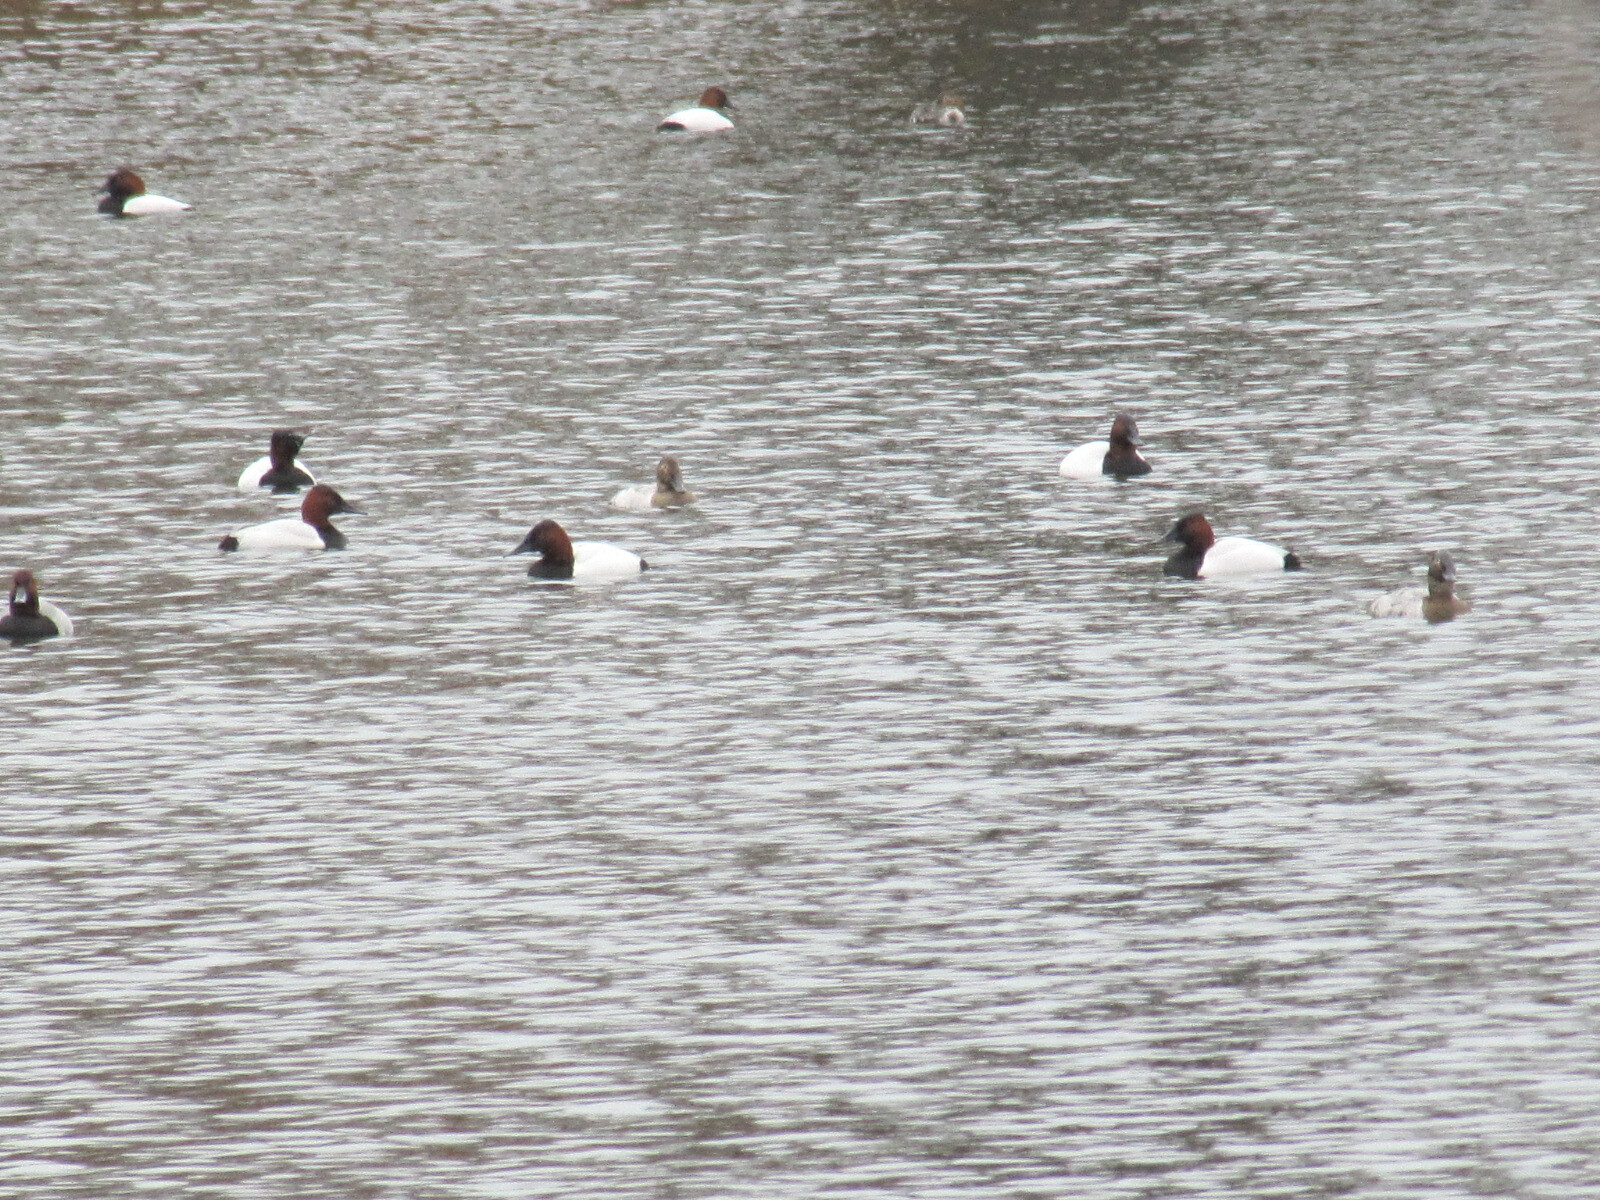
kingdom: Animalia
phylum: Chordata
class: Aves
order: Anseriformes
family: Anatidae
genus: Aythya
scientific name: Aythya valisineria
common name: Canvasback
